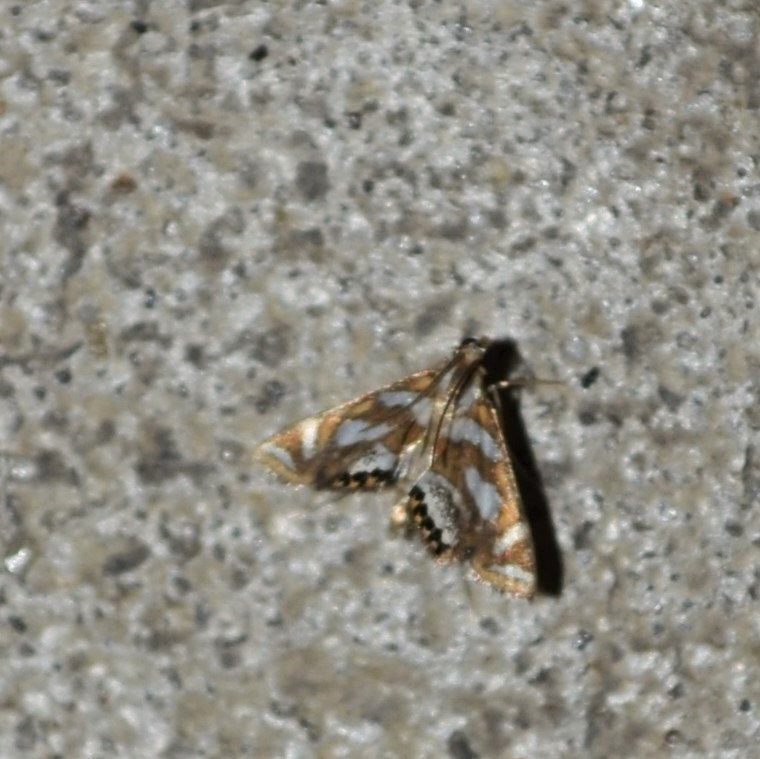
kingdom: Animalia
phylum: Arthropoda
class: Insecta
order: Lepidoptera
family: Crambidae
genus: Chrysendeton
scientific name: Chrysendeton medicinalis
